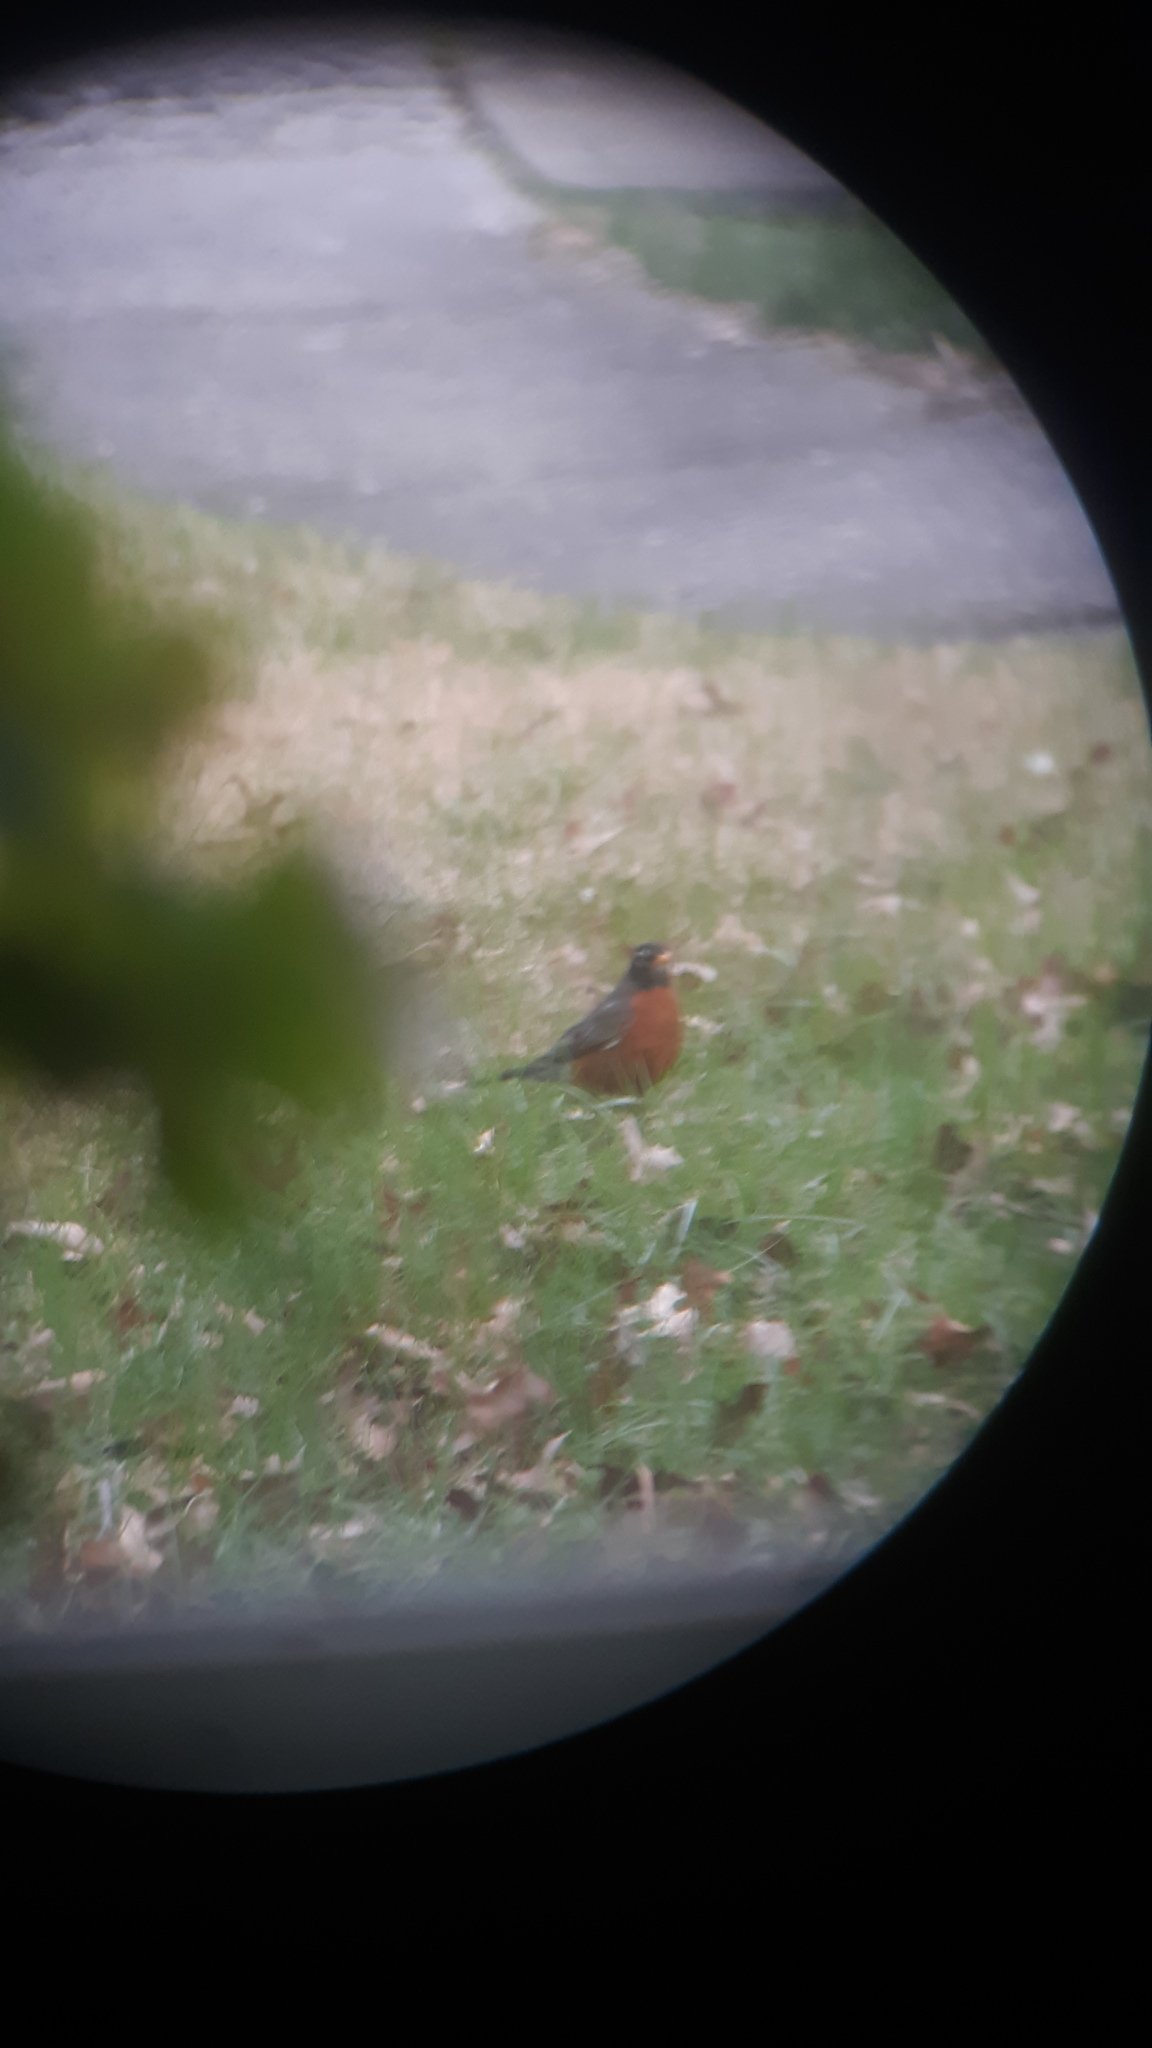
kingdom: Animalia
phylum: Chordata
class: Aves
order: Passeriformes
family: Turdidae
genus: Turdus
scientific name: Turdus migratorius
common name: American robin
